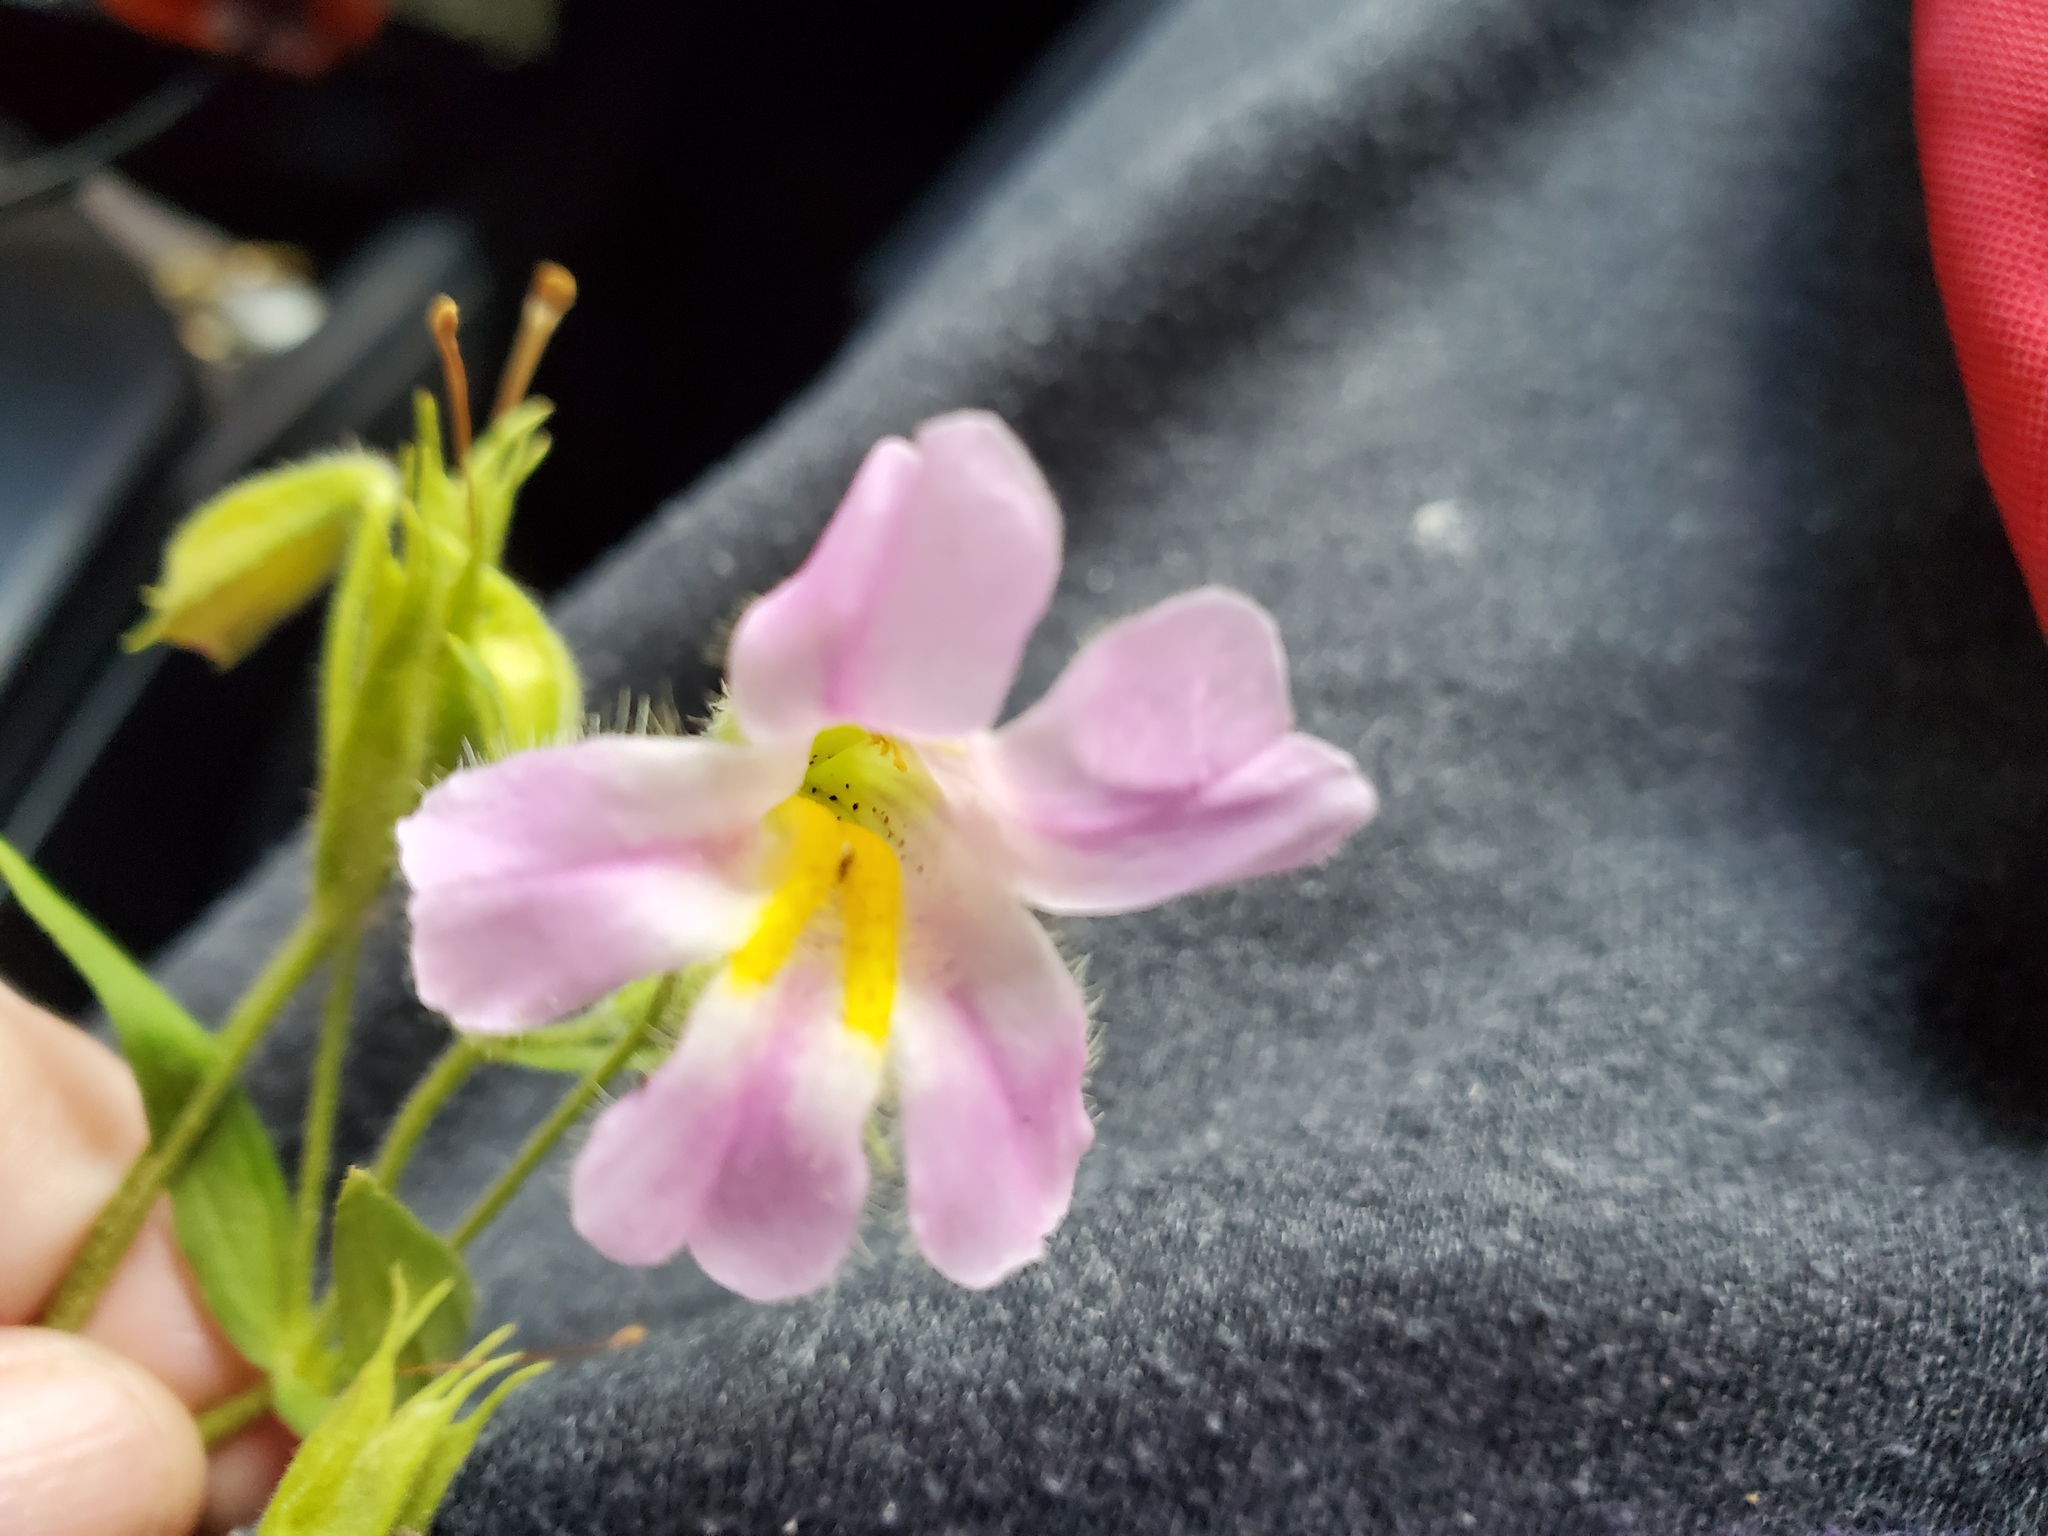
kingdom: Plantae
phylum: Tracheophyta
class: Magnoliopsida
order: Lamiales
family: Phrymaceae
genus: Erythranthe
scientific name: Erythranthe erubescens
